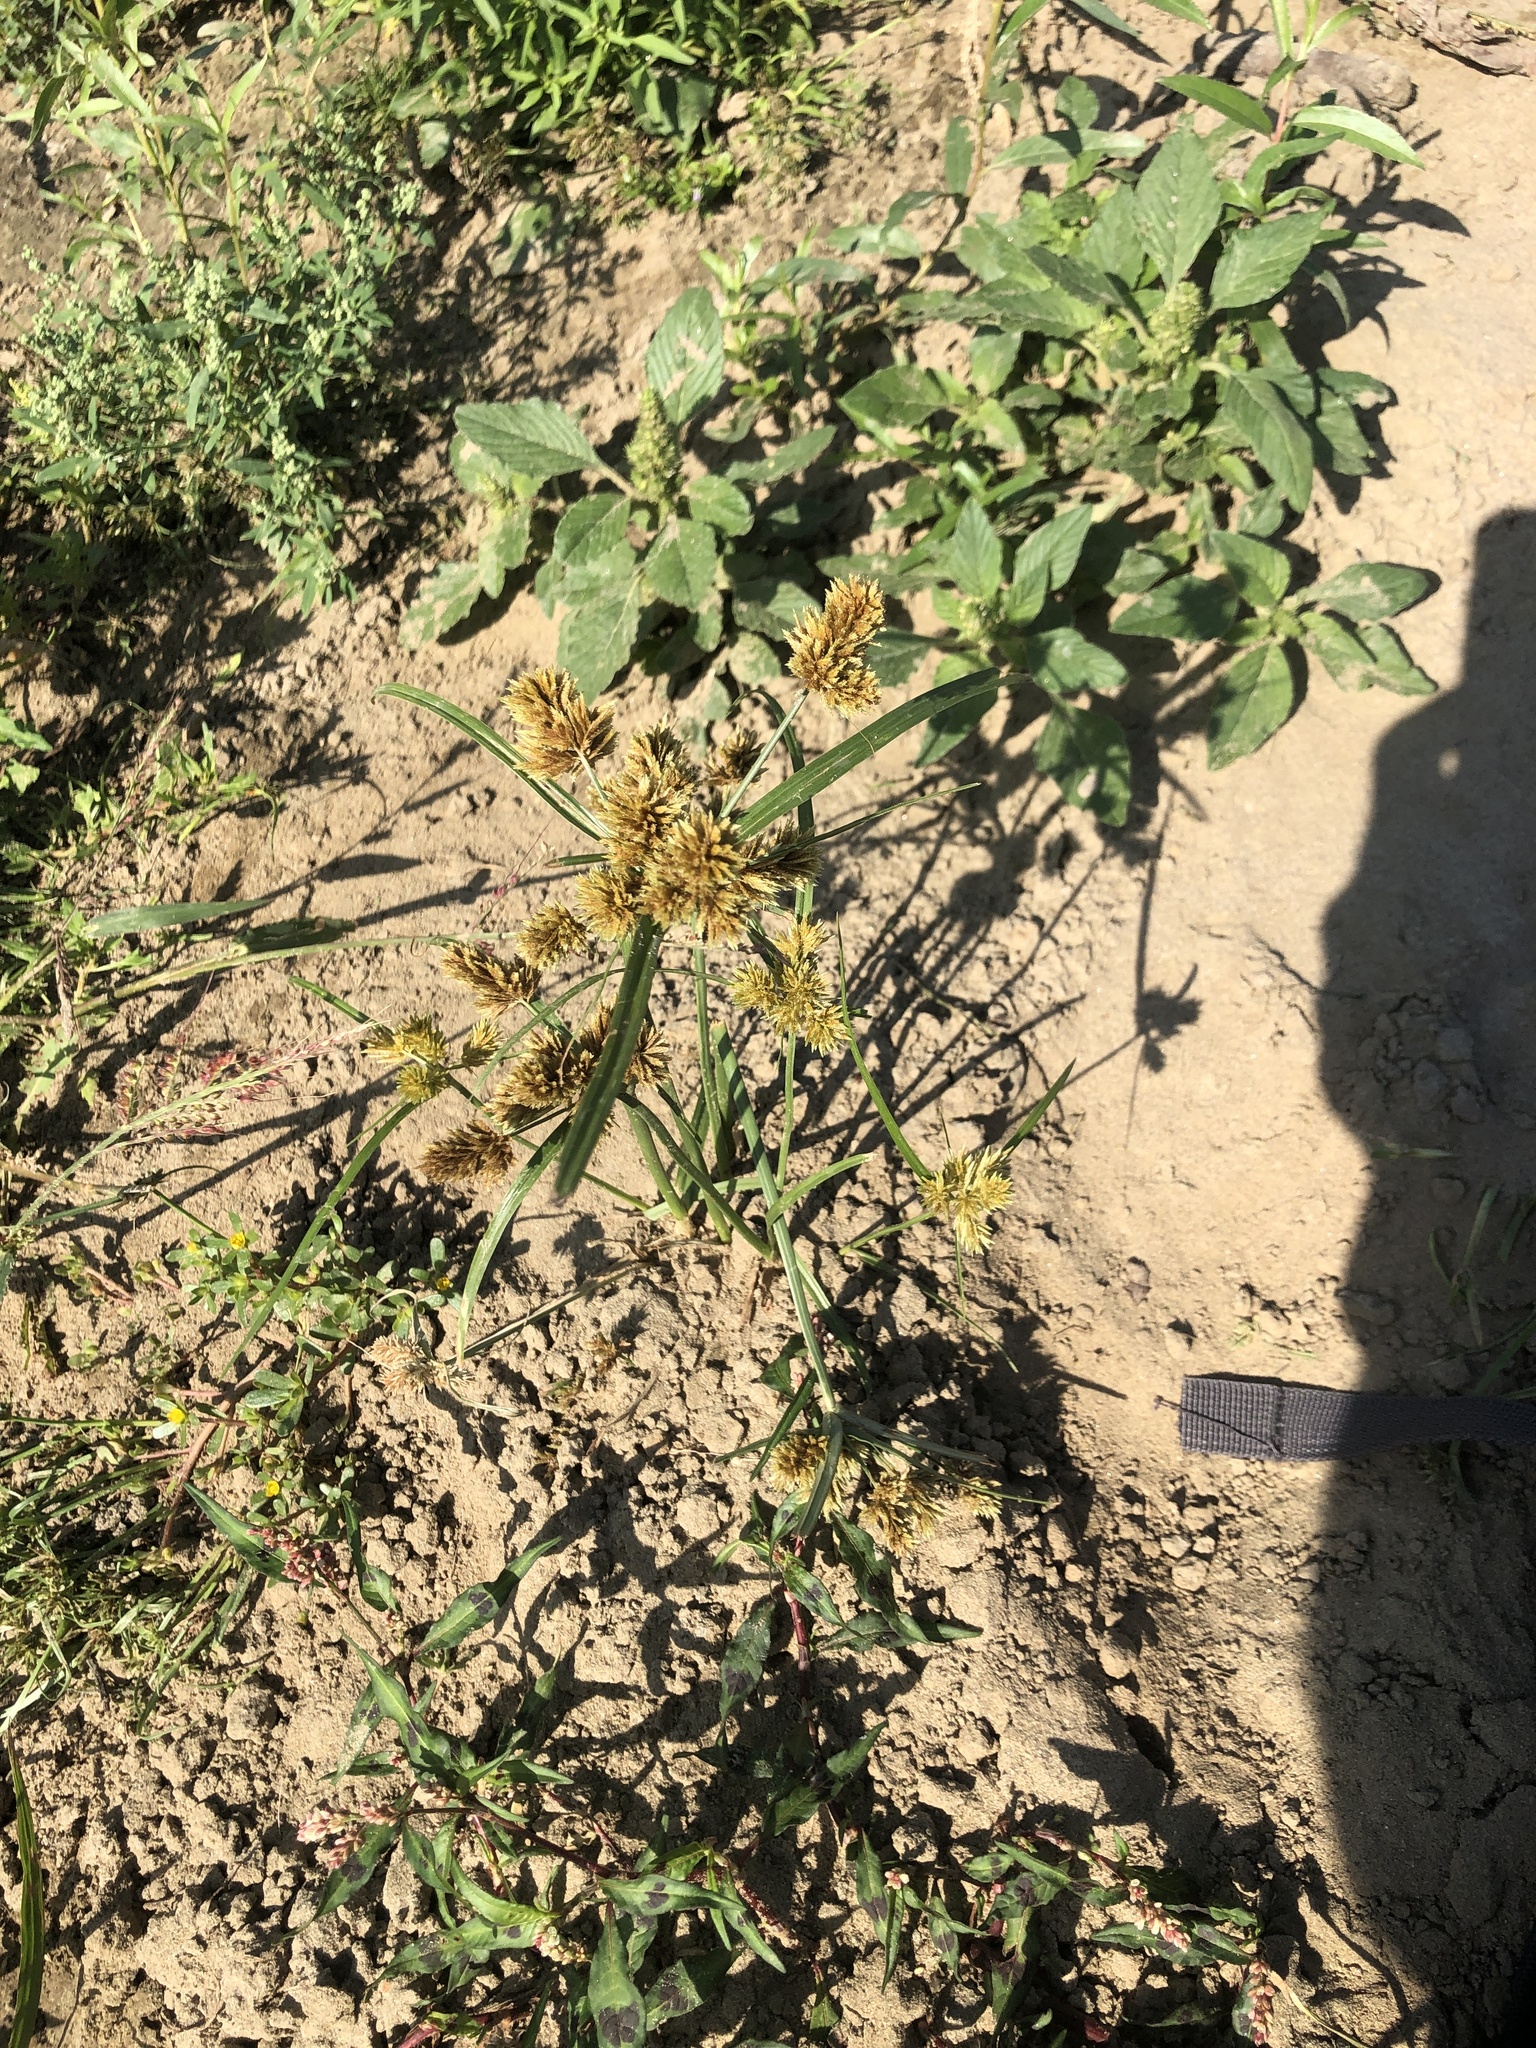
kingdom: Plantae
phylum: Tracheophyta
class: Liliopsida
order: Poales
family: Cyperaceae
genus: Cyperus
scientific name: Cyperus glomeratus
